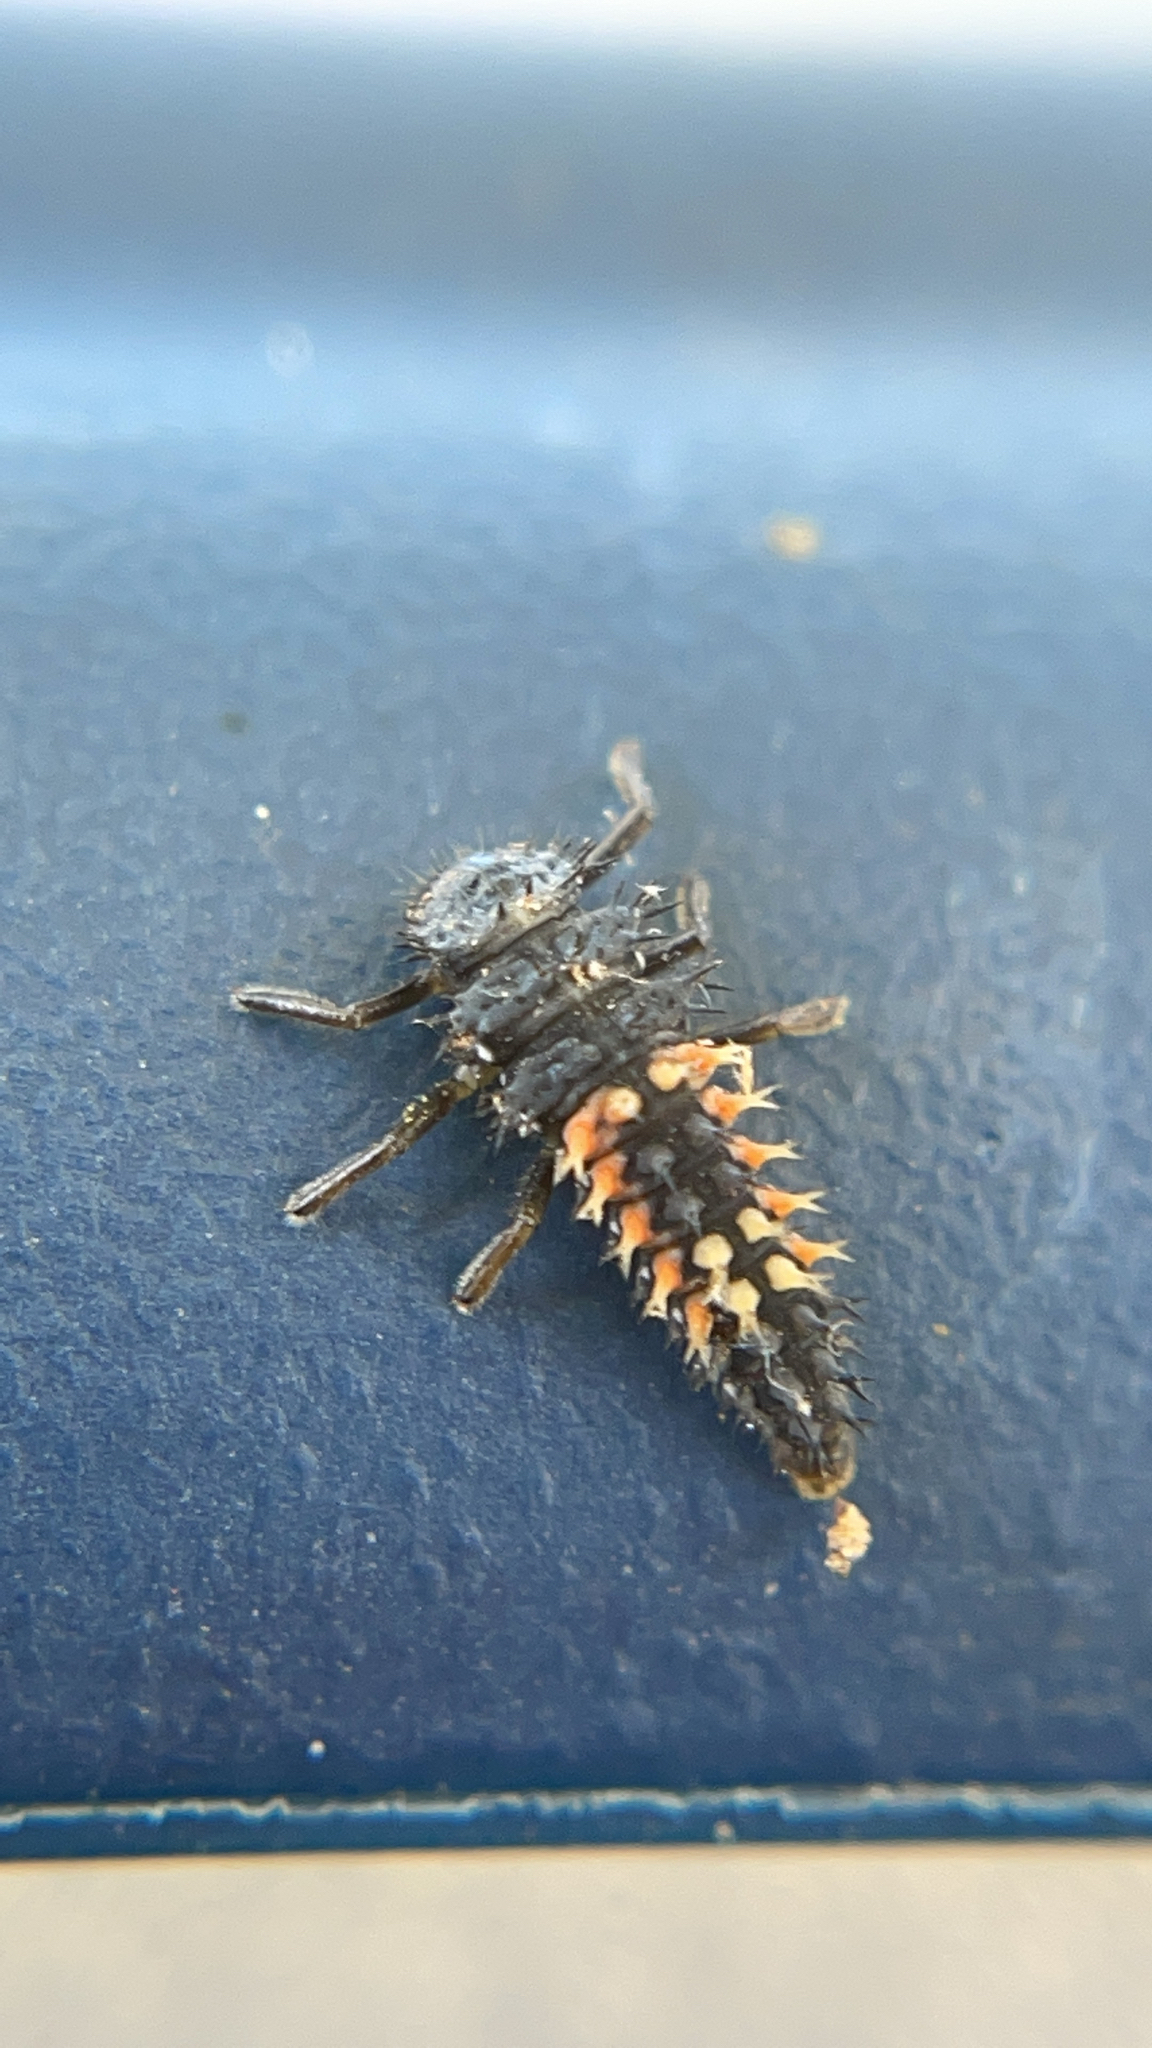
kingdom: Animalia
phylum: Arthropoda
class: Insecta
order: Coleoptera
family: Coccinellidae
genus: Harmonia
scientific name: Harmonia axyridis
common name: Harlequin ladybird
